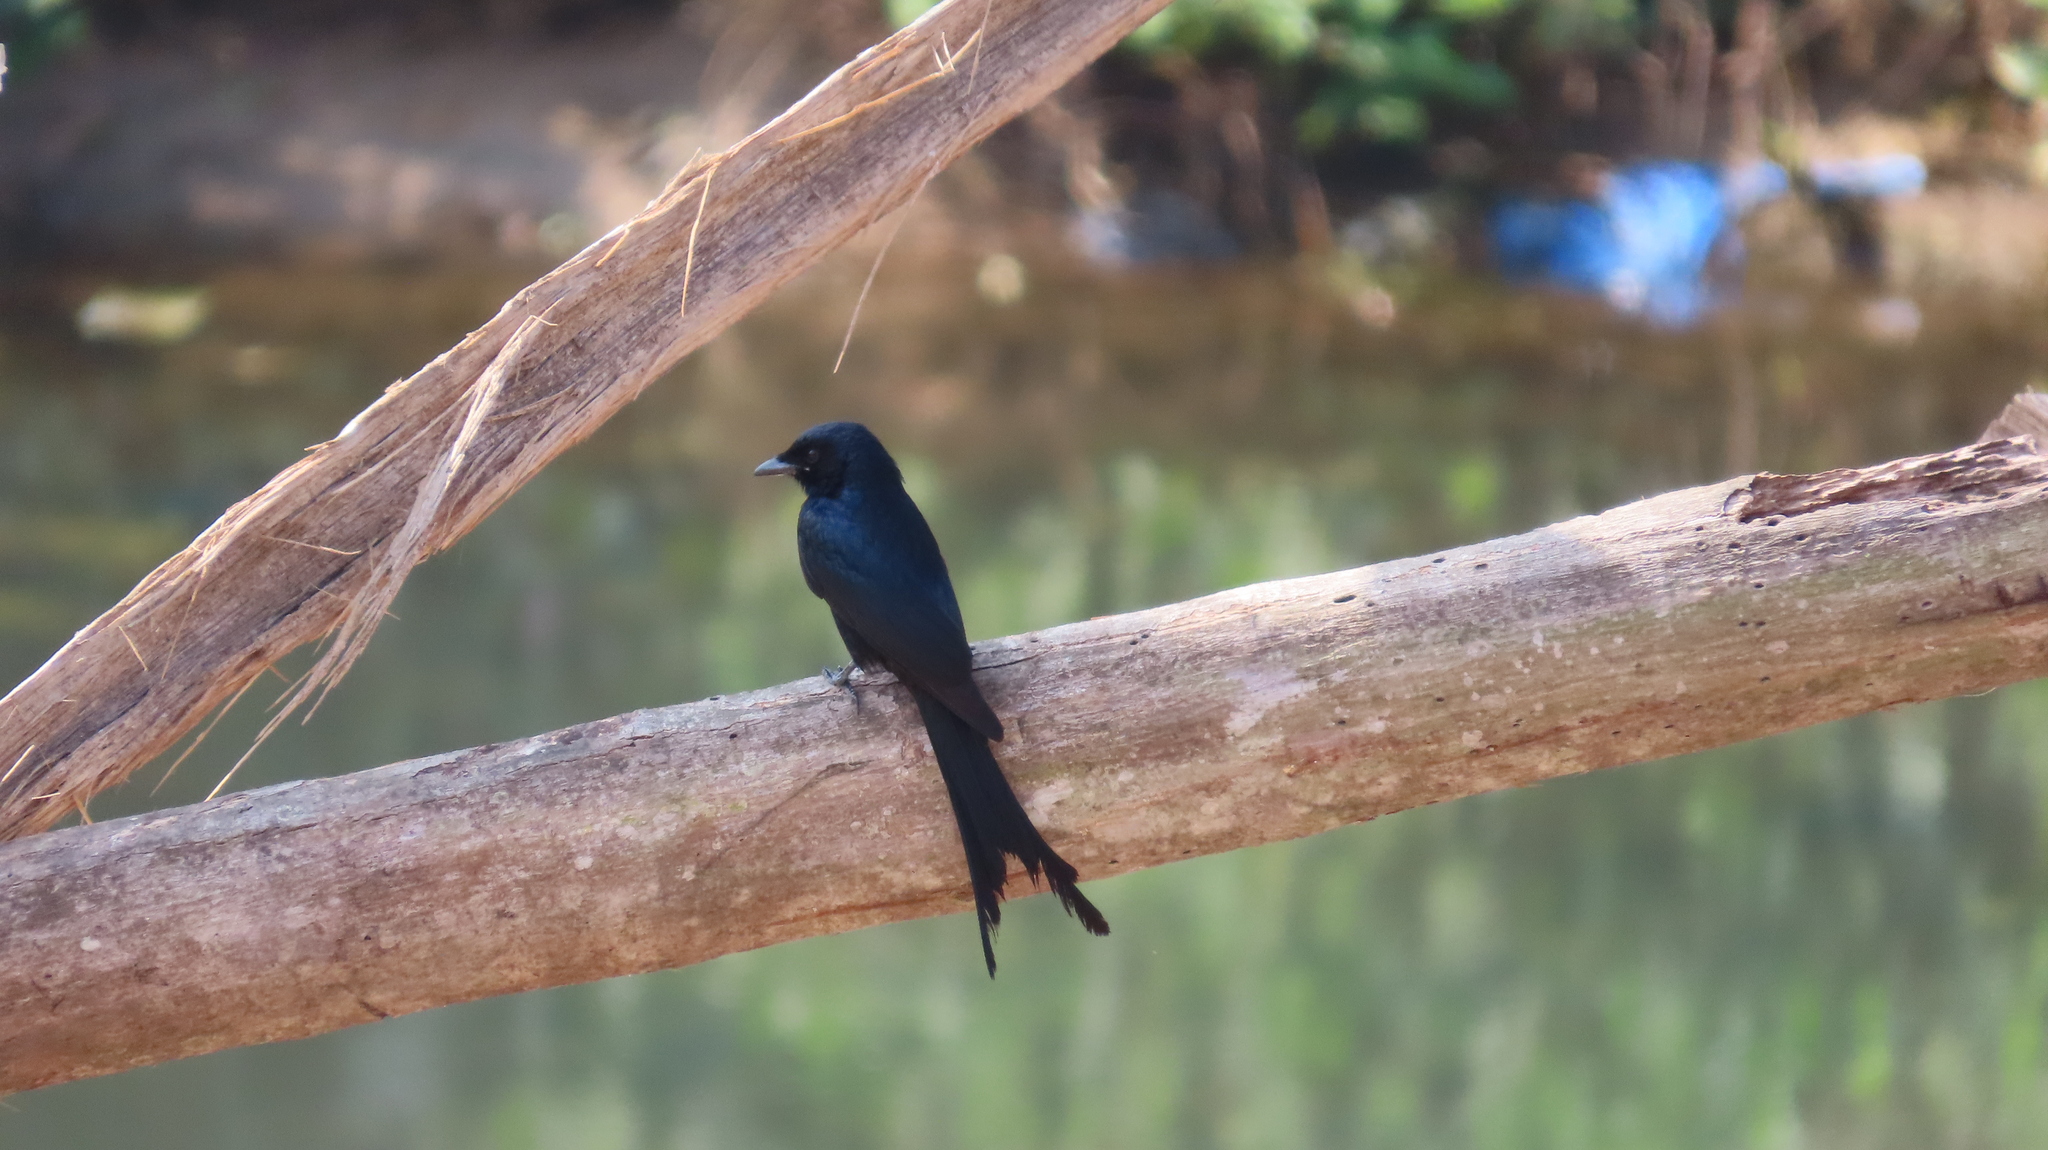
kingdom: Animalia
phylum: Chordata
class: Aves
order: Passeriformes
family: Dicruridae
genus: Dicrurus
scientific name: Dicrurus macrocercus
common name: Black drongo
